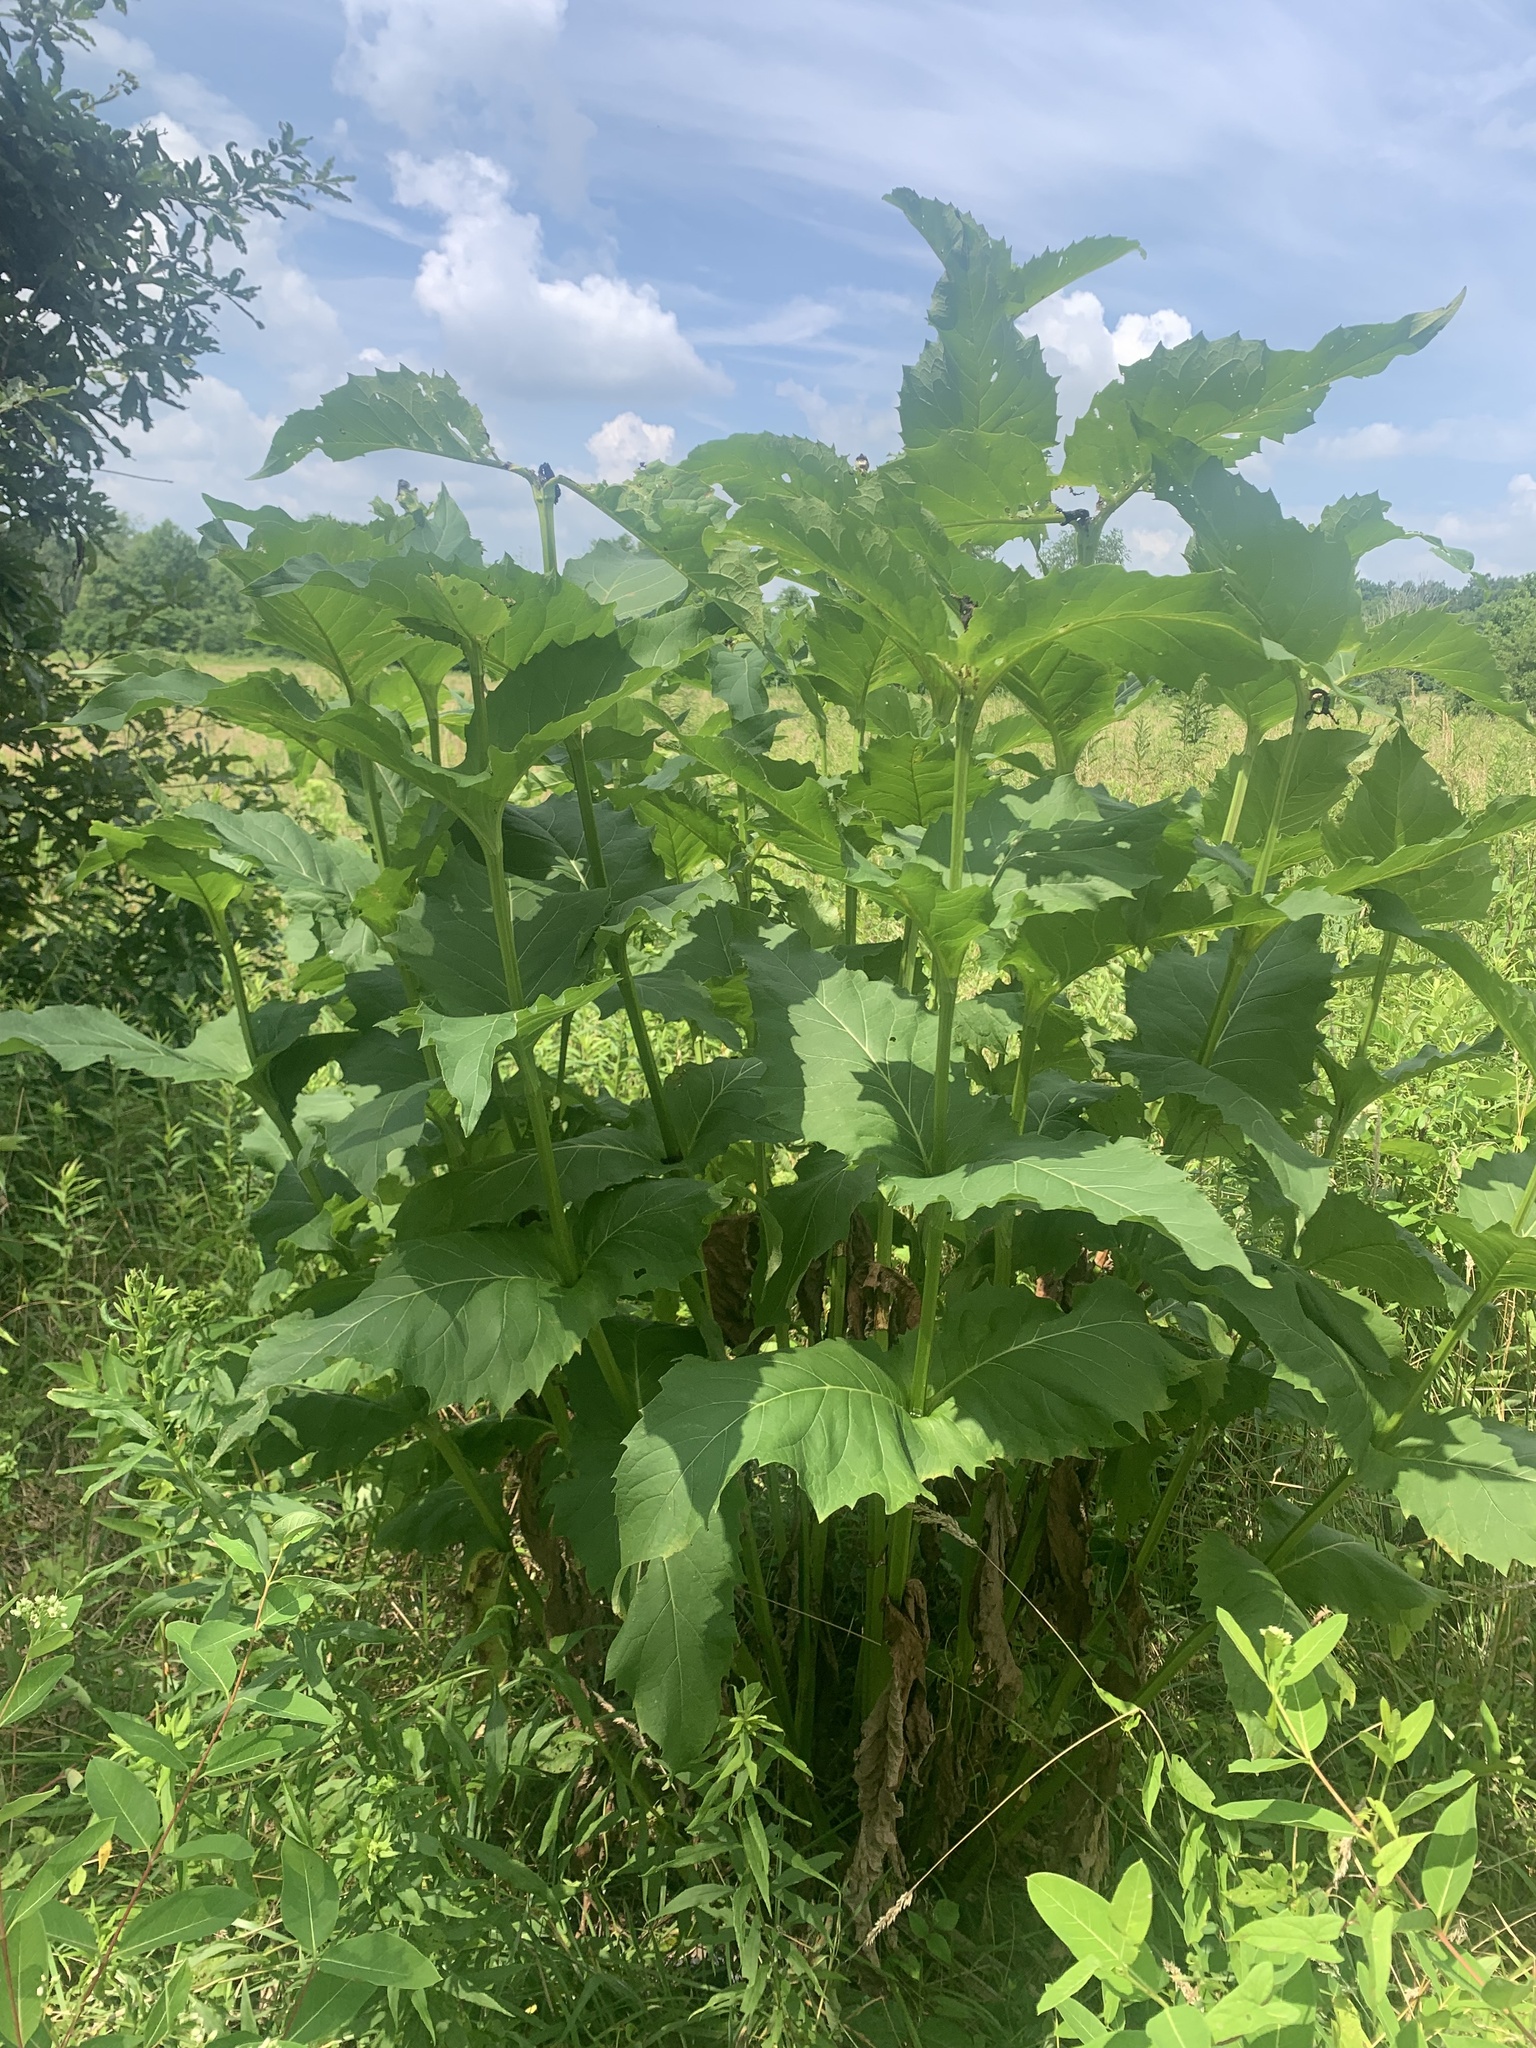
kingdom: Plantae
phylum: Tracheophyta
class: Magnoliopsida
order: Asterales
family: Asteraceae
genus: Silphium
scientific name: Silphium perfoliatum
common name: Cup-plant
